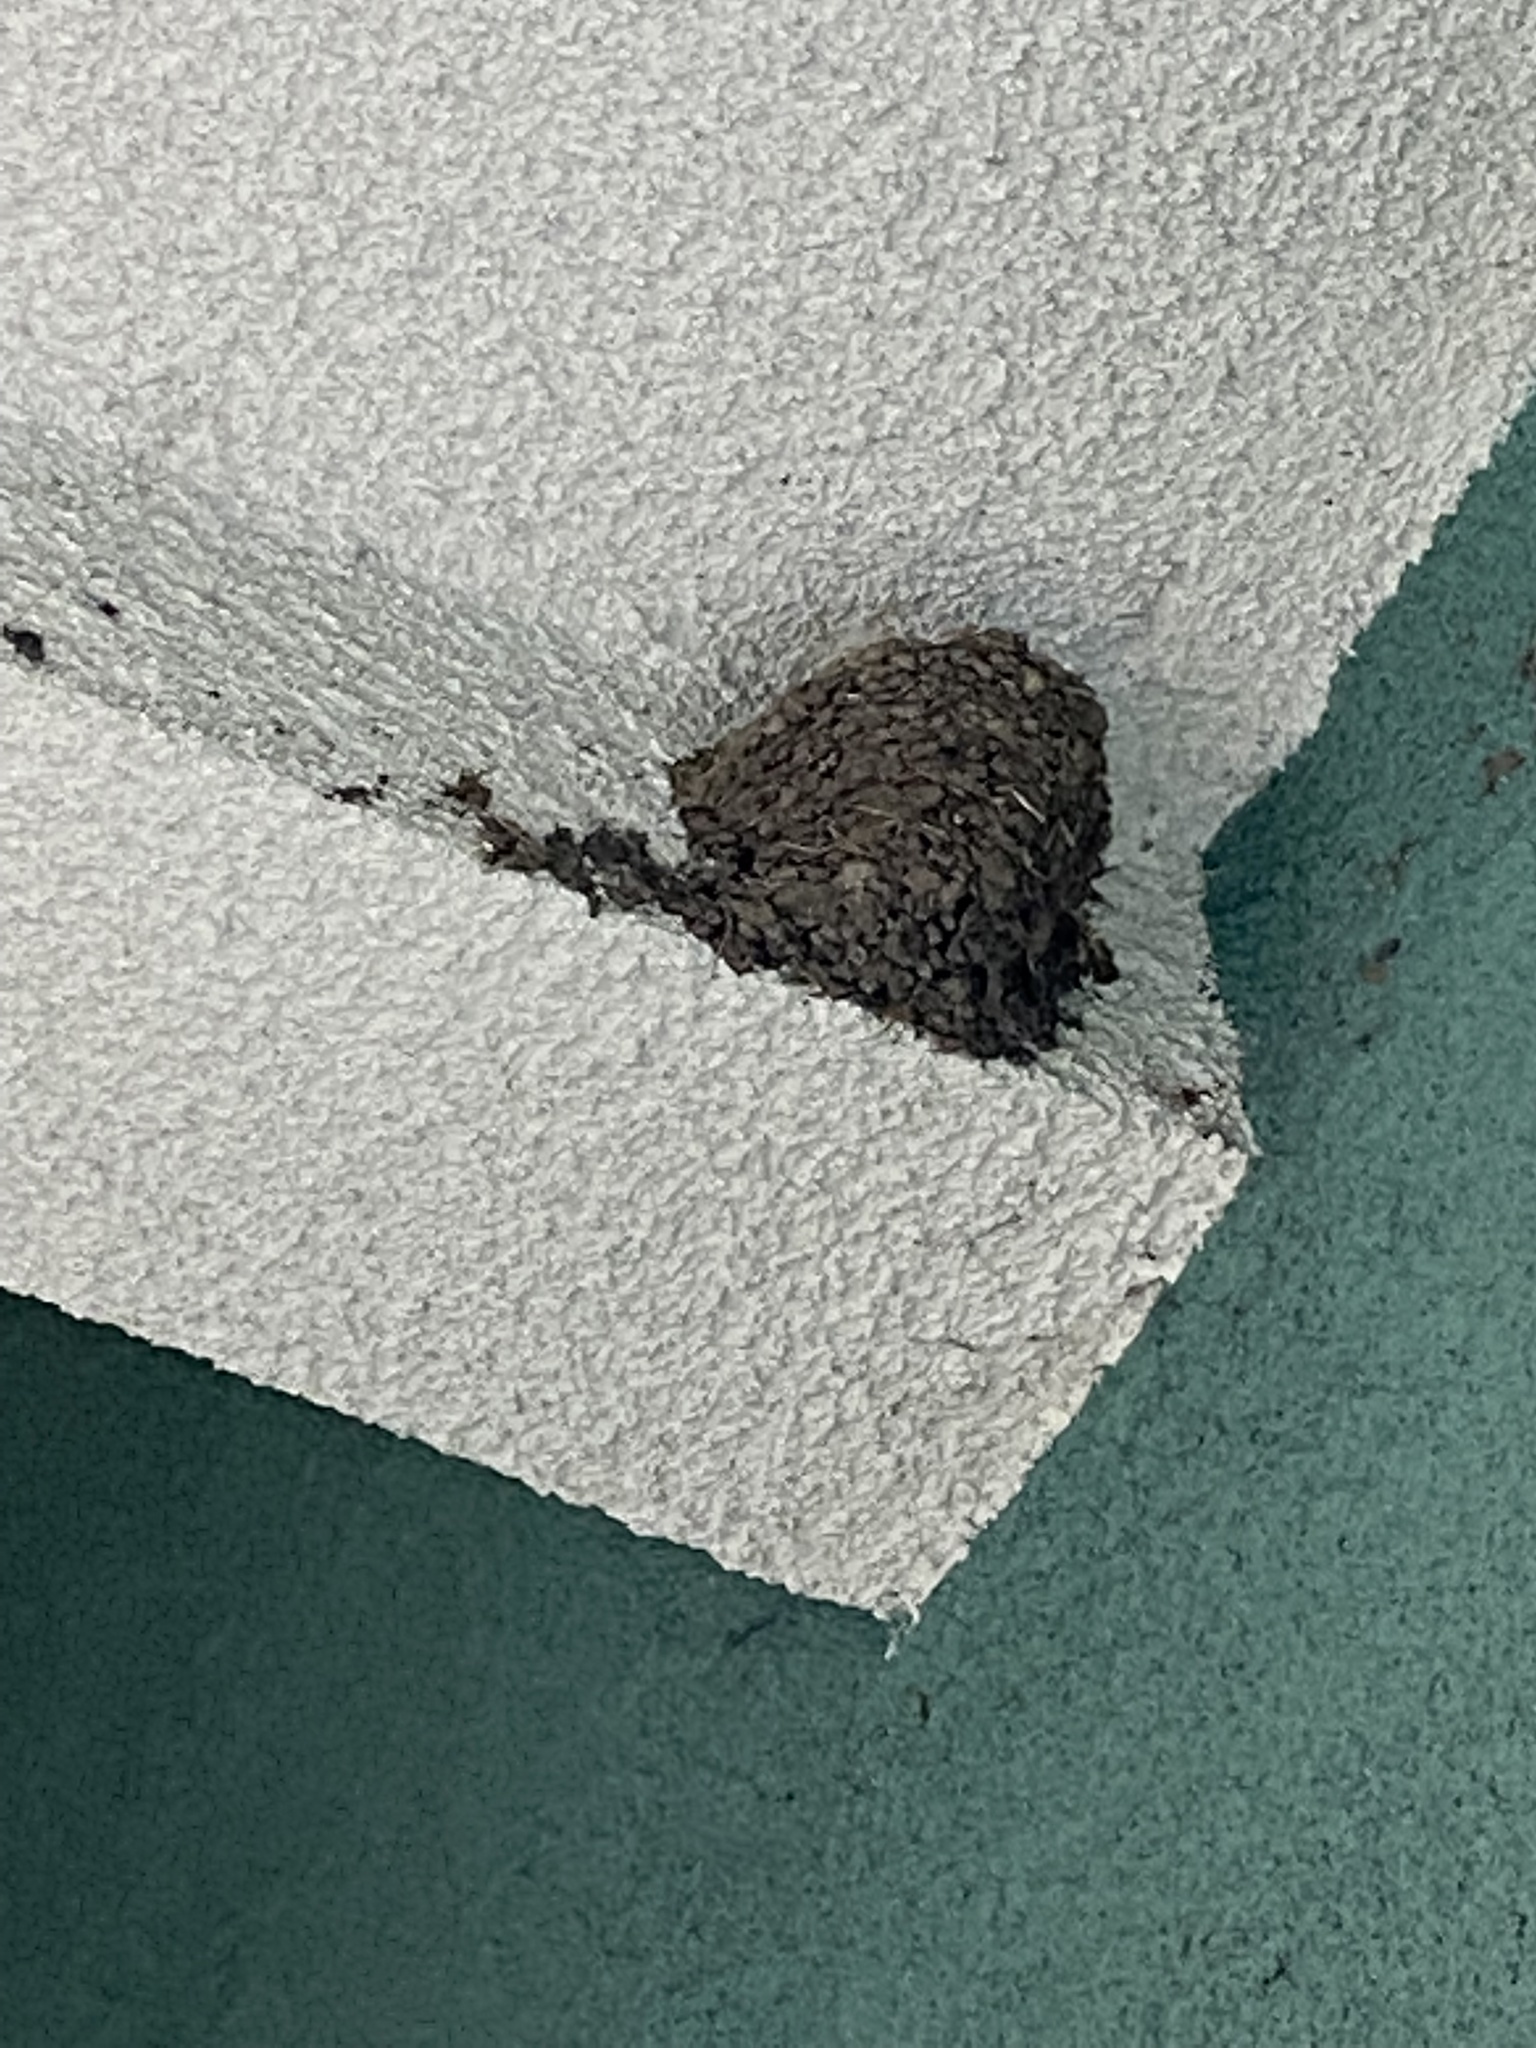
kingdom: Animalia
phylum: Chordata
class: Aves
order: Passeriformes
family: Hirundinidae
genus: Hirundo
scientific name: Hirundo rustica
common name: Barn swallow
